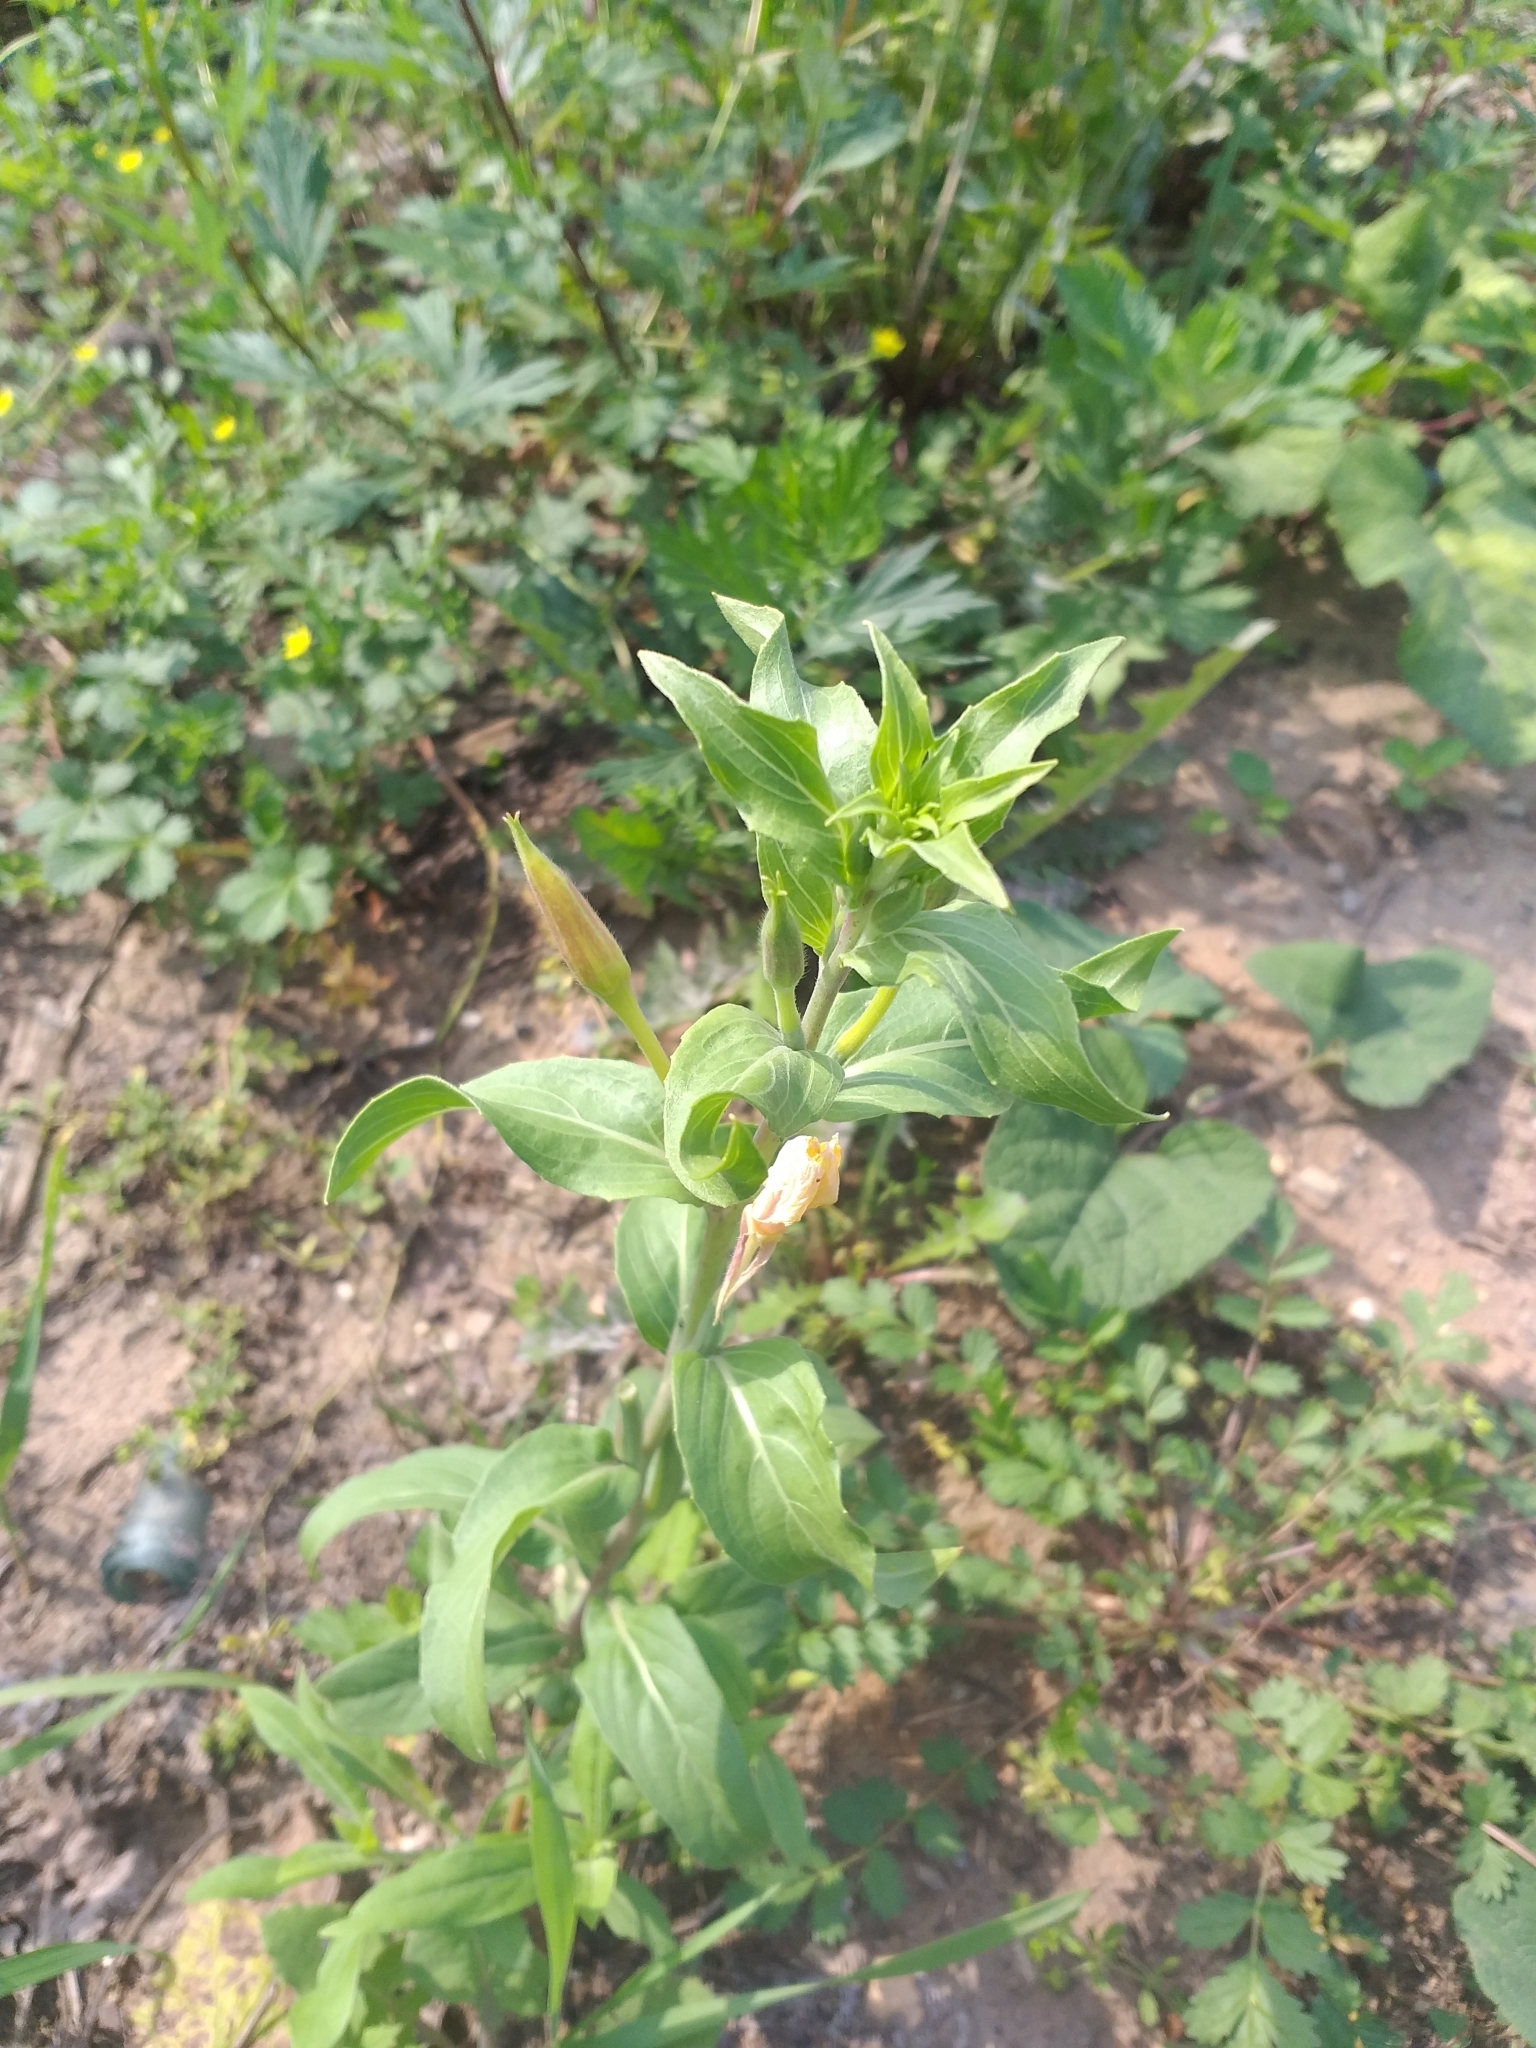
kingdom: Plantae
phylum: Tracheophyta
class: Magnoliopsida
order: Myrtales
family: Onagraceae
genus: Oenothera
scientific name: Oenothera villosa
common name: Hairy evening-primrose
